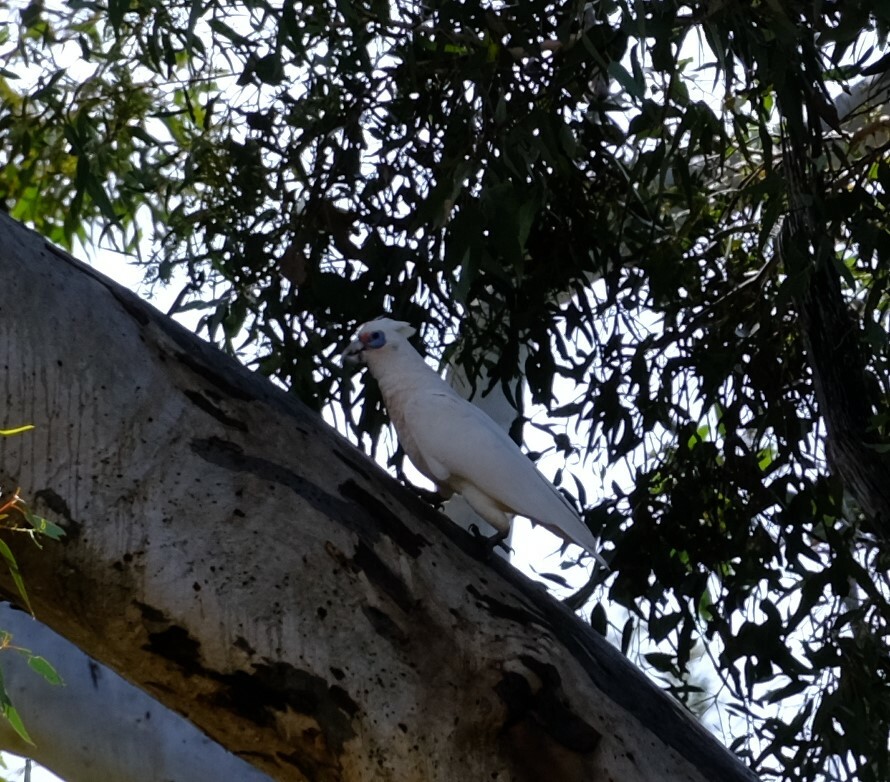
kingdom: Animalia
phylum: Chordata
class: Aves
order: Psittaciformes
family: Psittacidae
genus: Cacatua
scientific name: Cacatua pastinator
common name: Western corella
